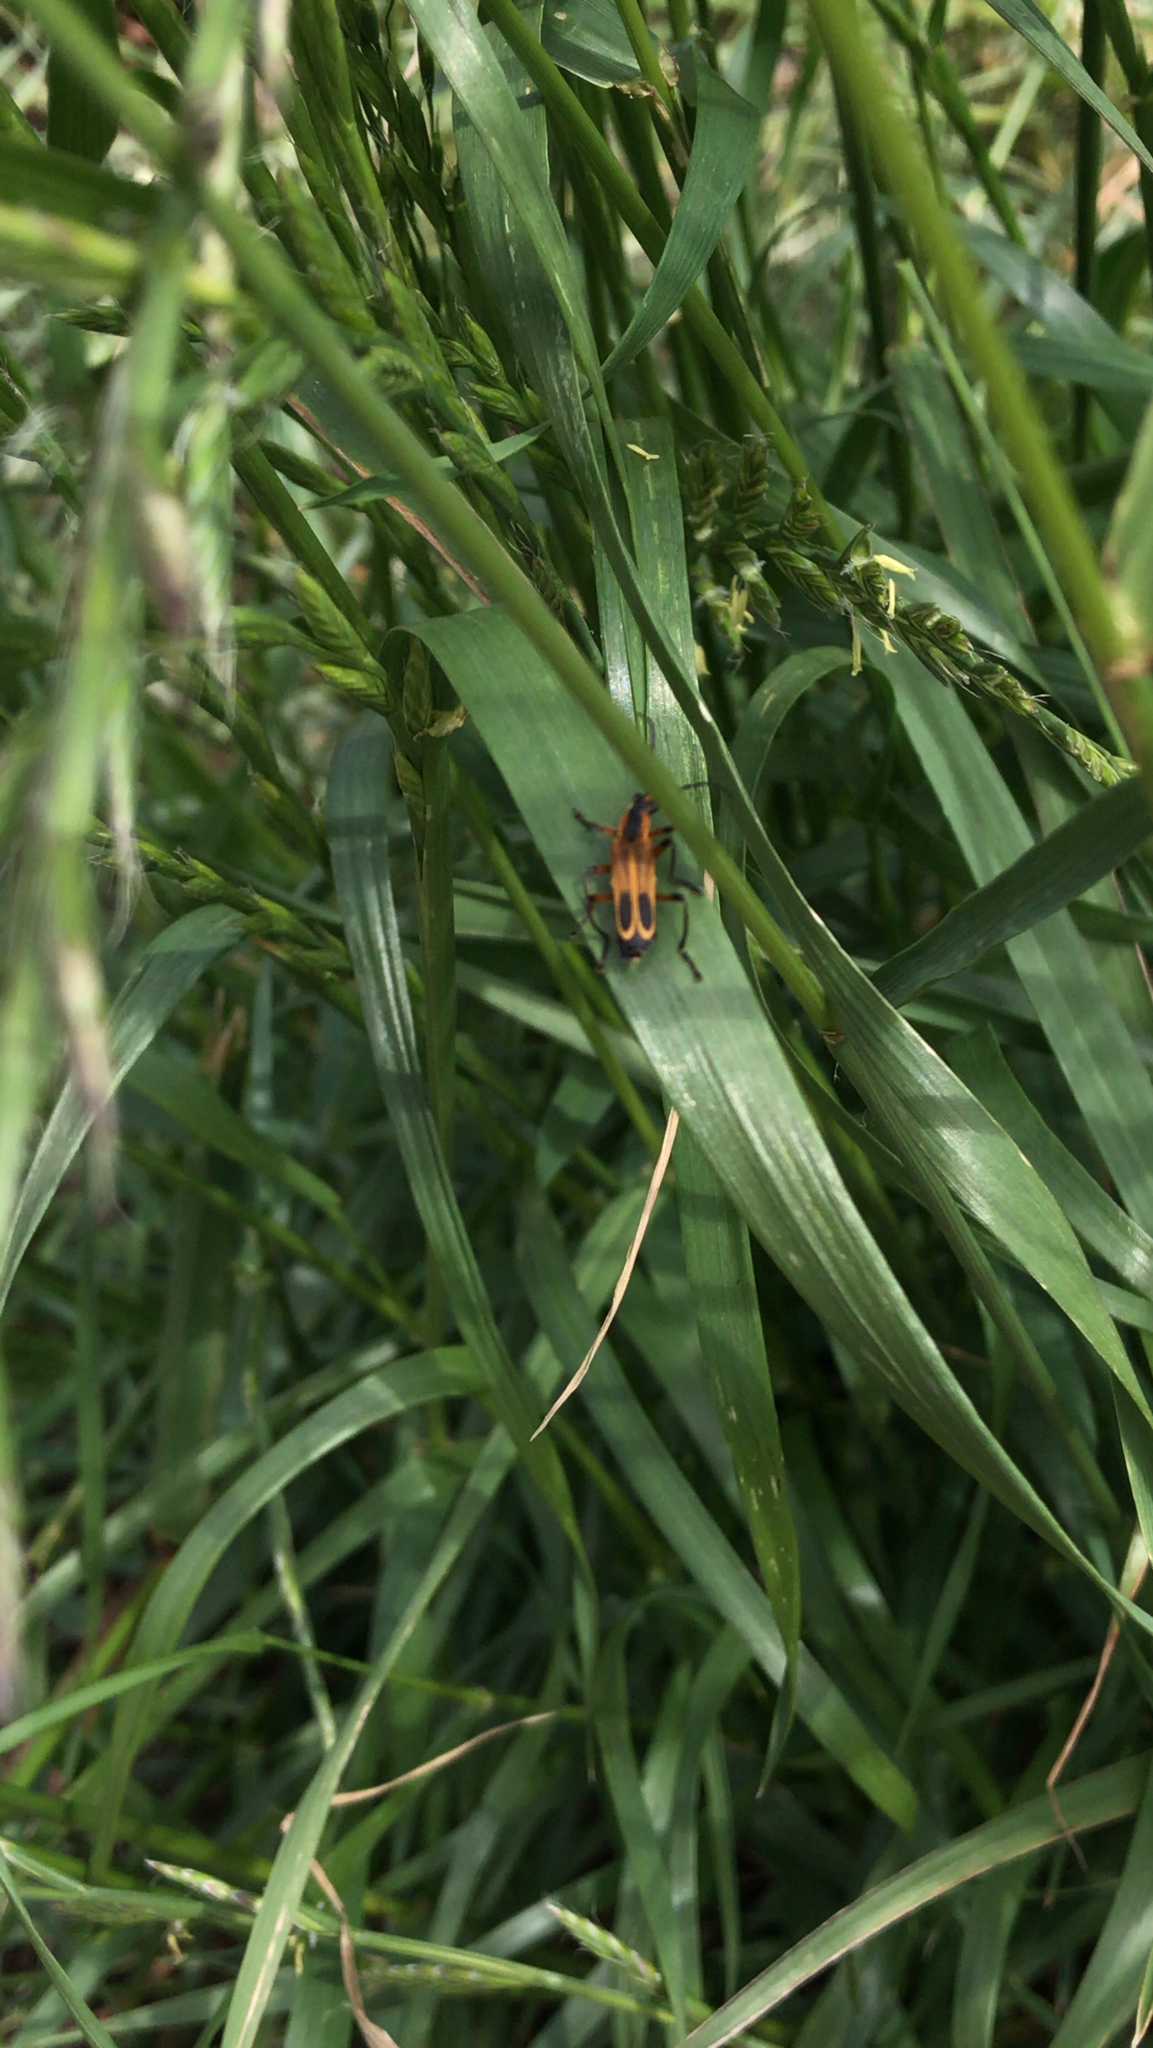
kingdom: Animalia
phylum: Arthropoda
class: Insecta
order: Coleoptera
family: Cantharidae
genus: Chauliognathus
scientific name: Chauliognathus marginatus
